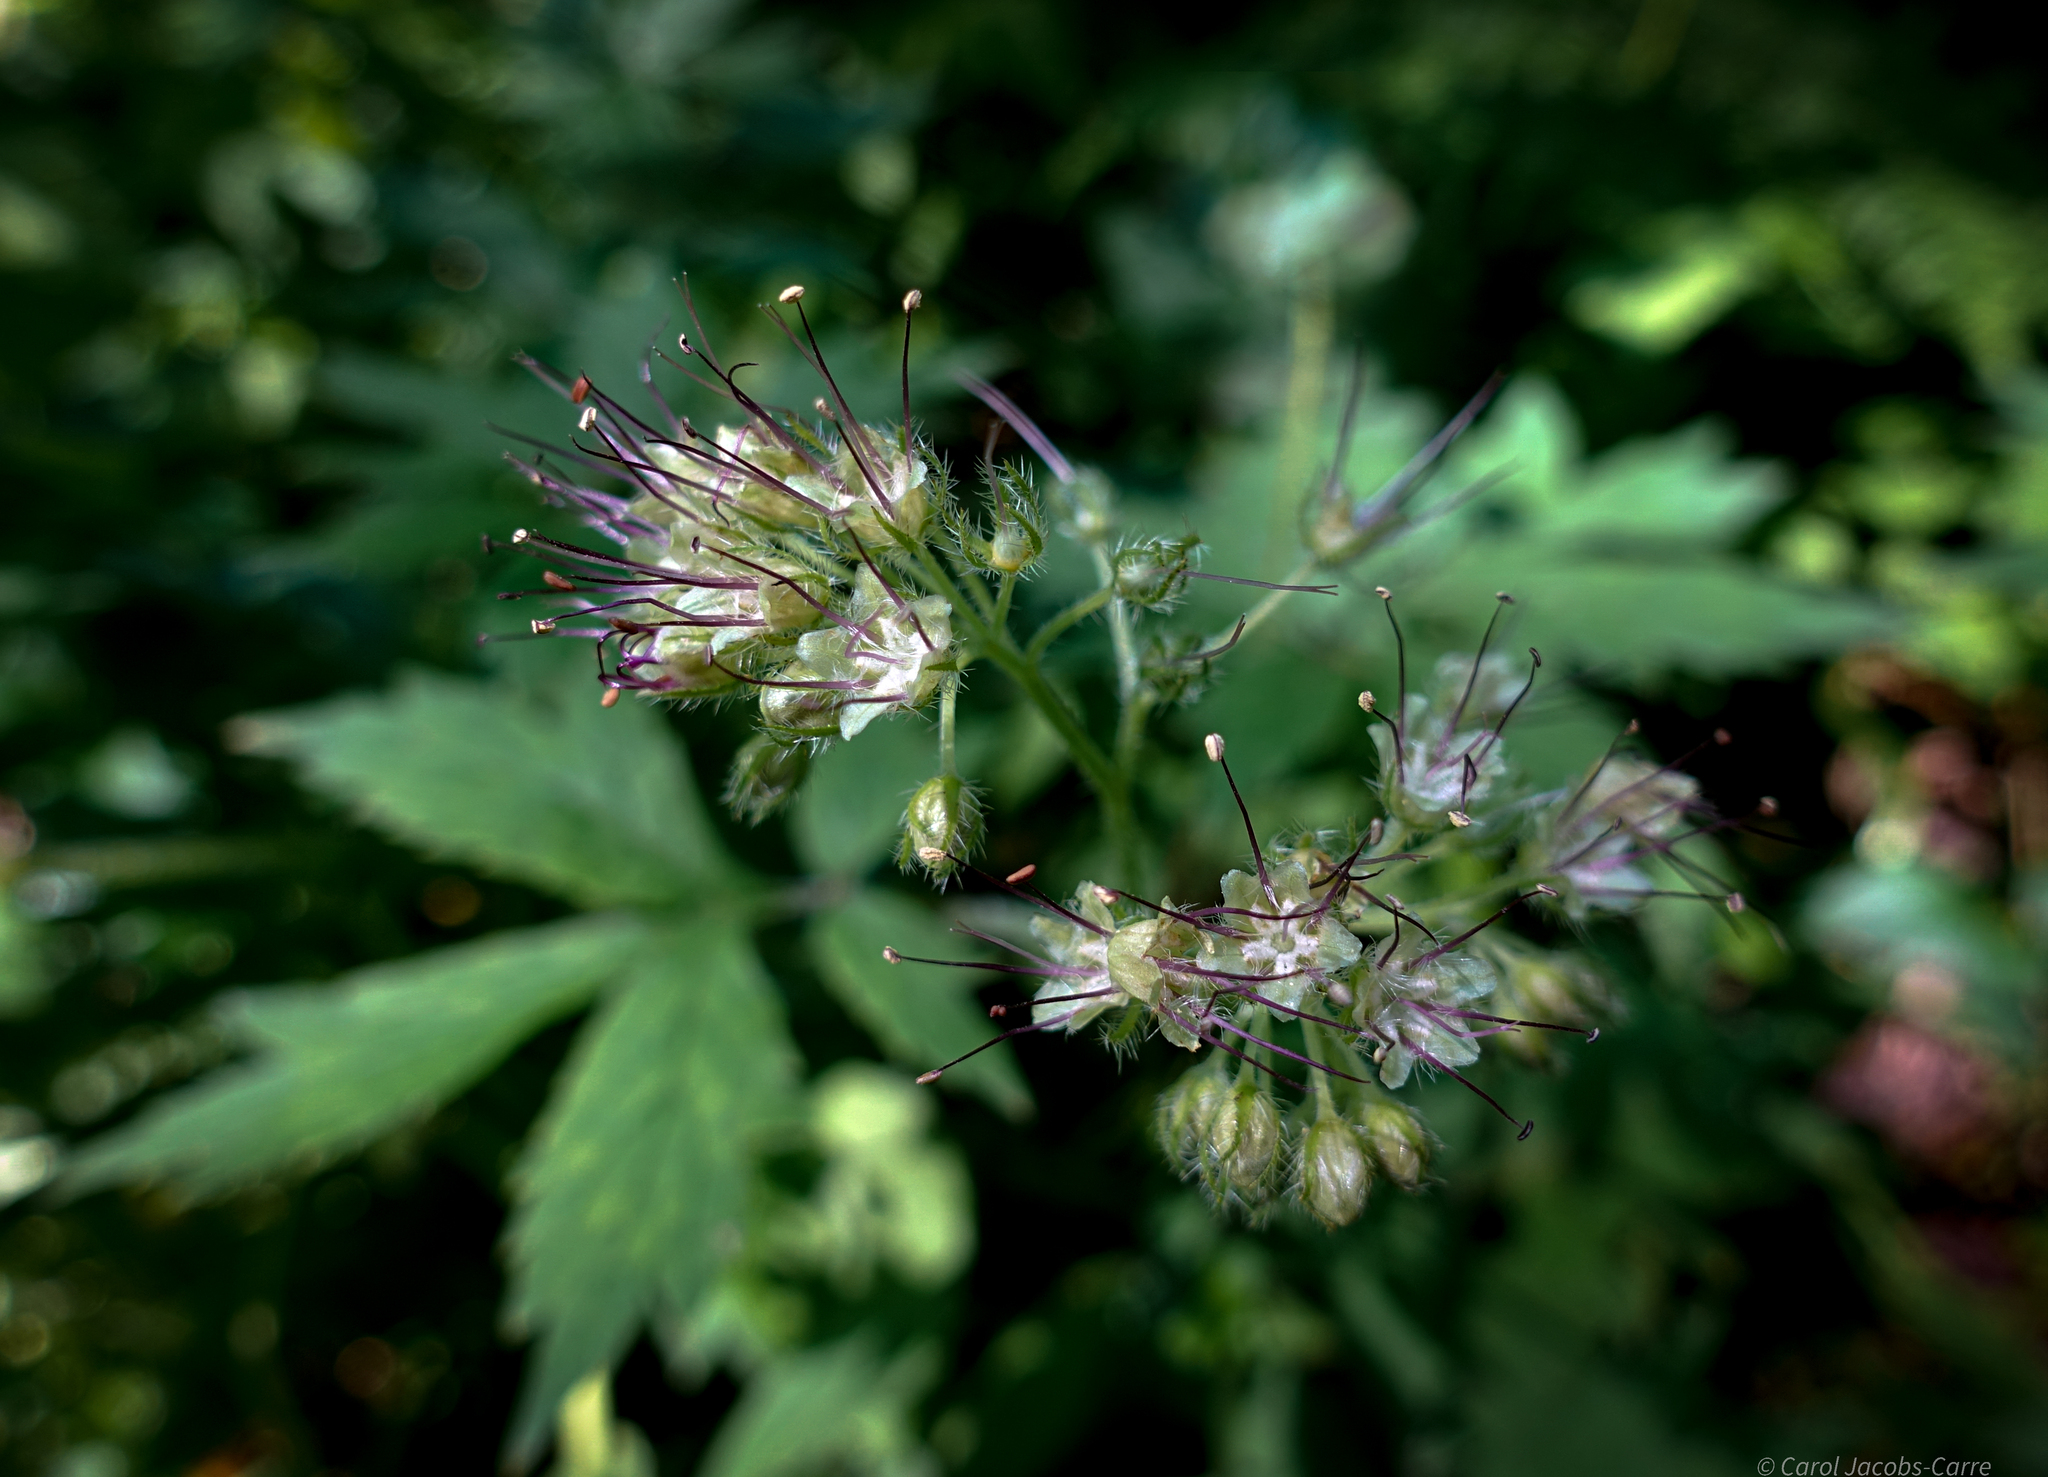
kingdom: Plantae
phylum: Tracheophyta
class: Magnoliopsida
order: Boraginales
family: Hydrophyllaceae
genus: Hydrophyllum
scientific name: Hydrophyllum tenuipes
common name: Pacific waterleaf
